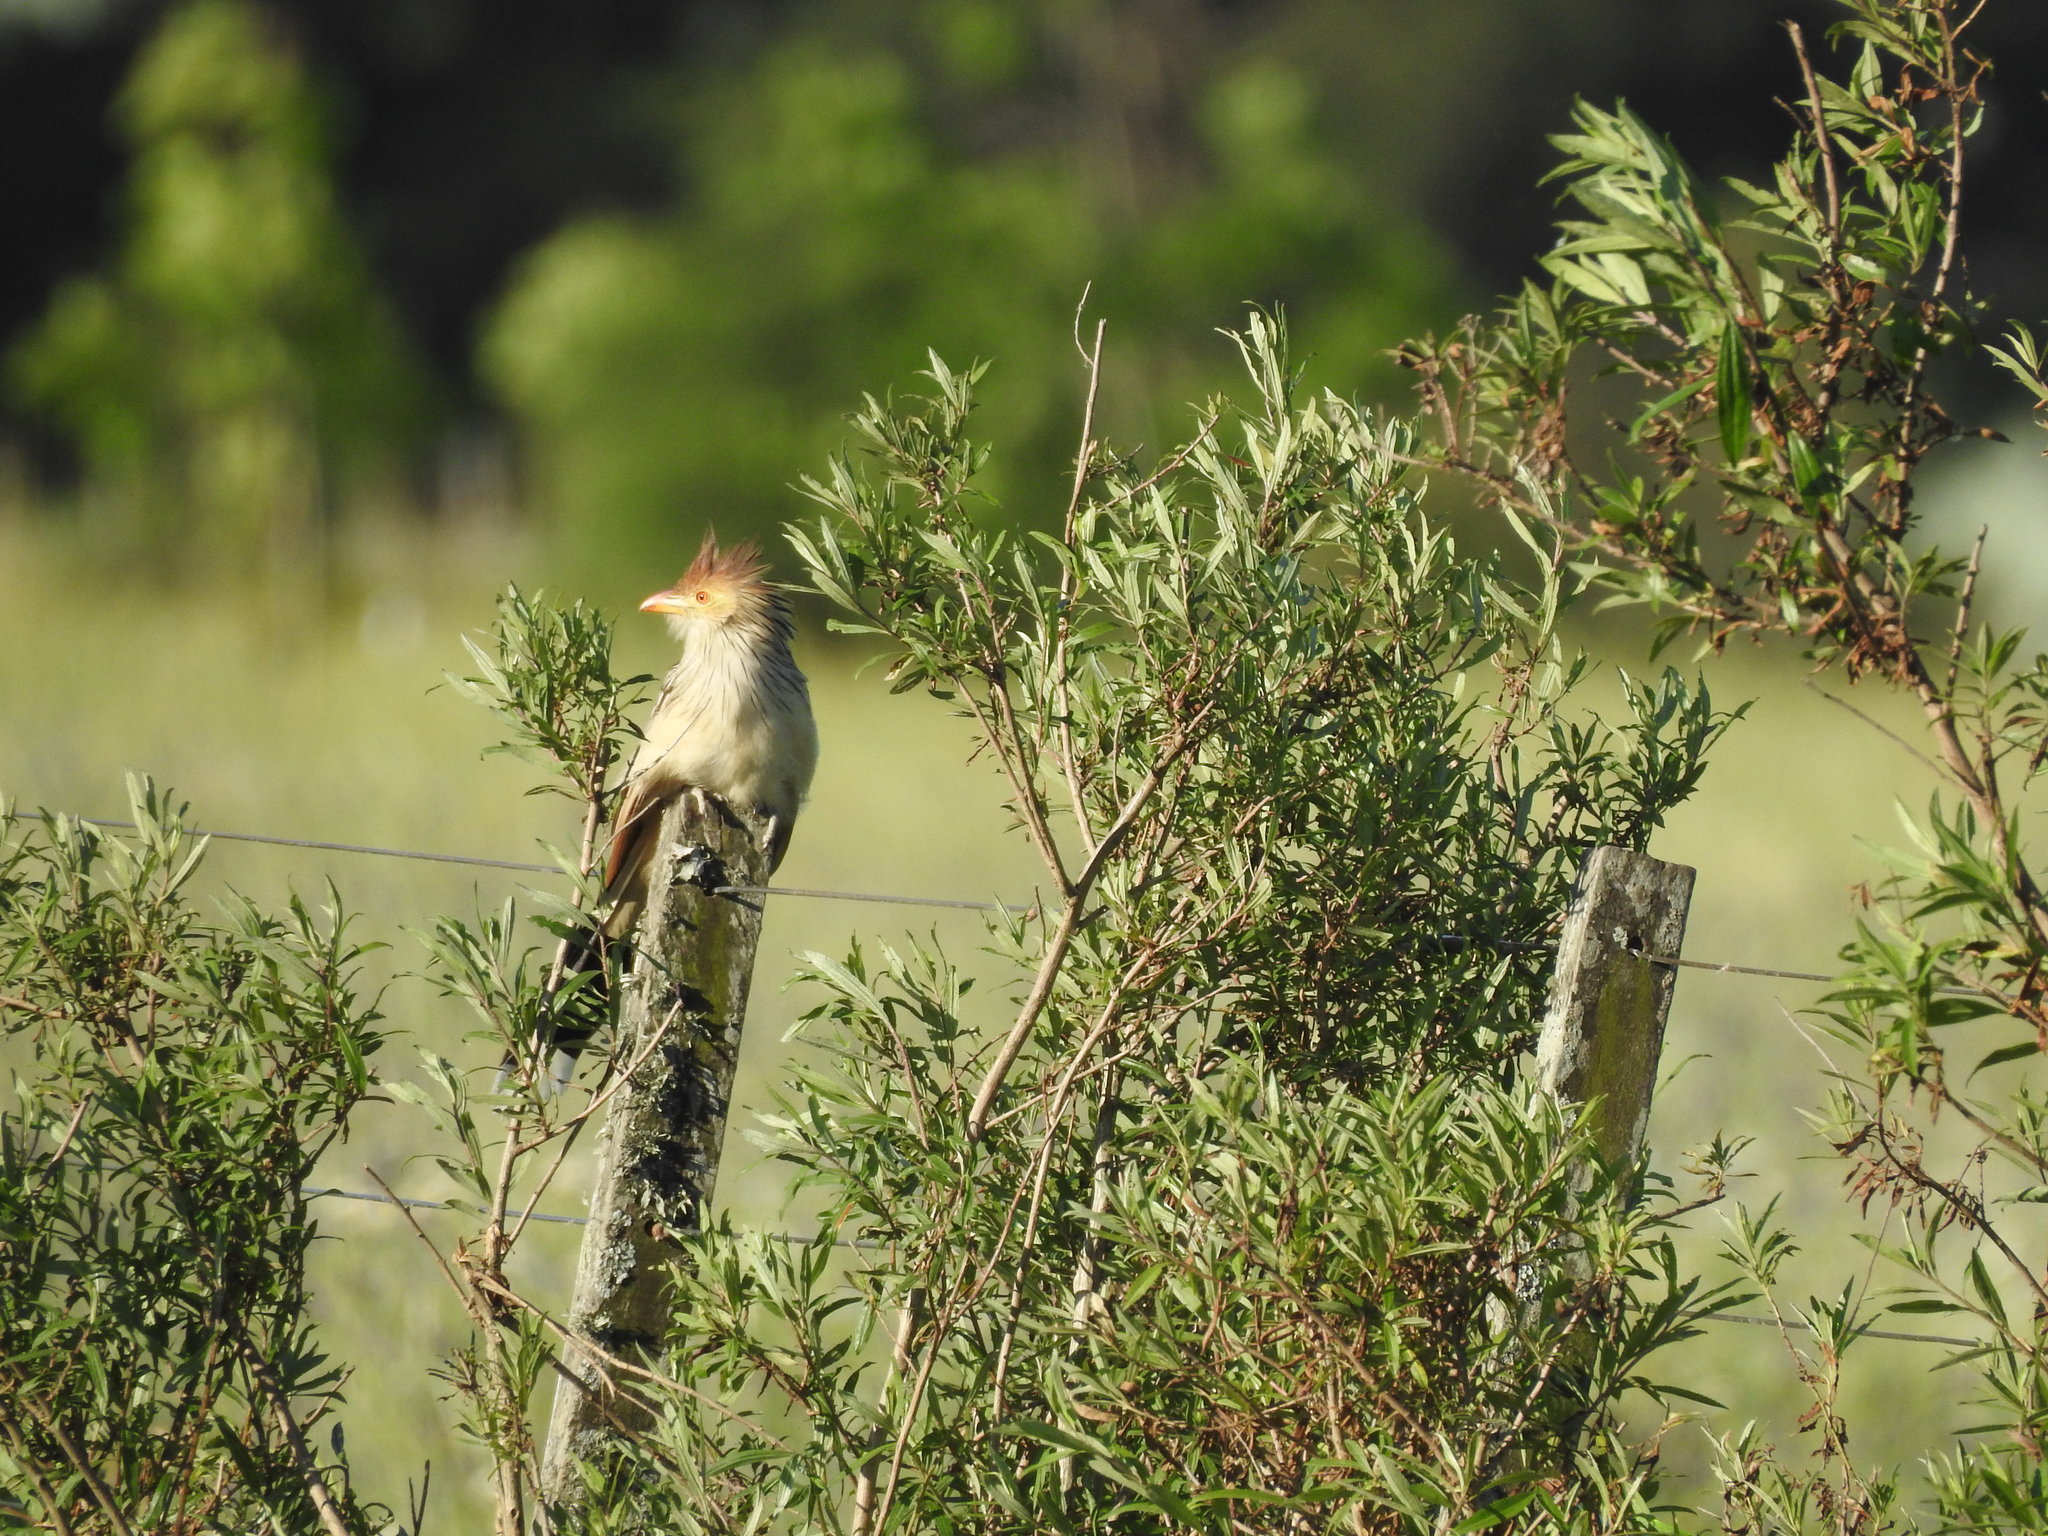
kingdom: Animalia
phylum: Chordata
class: Aves
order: Cuculiformes
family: Cuculidae
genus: Guira
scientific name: Guira guira
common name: Guira cuckoo
